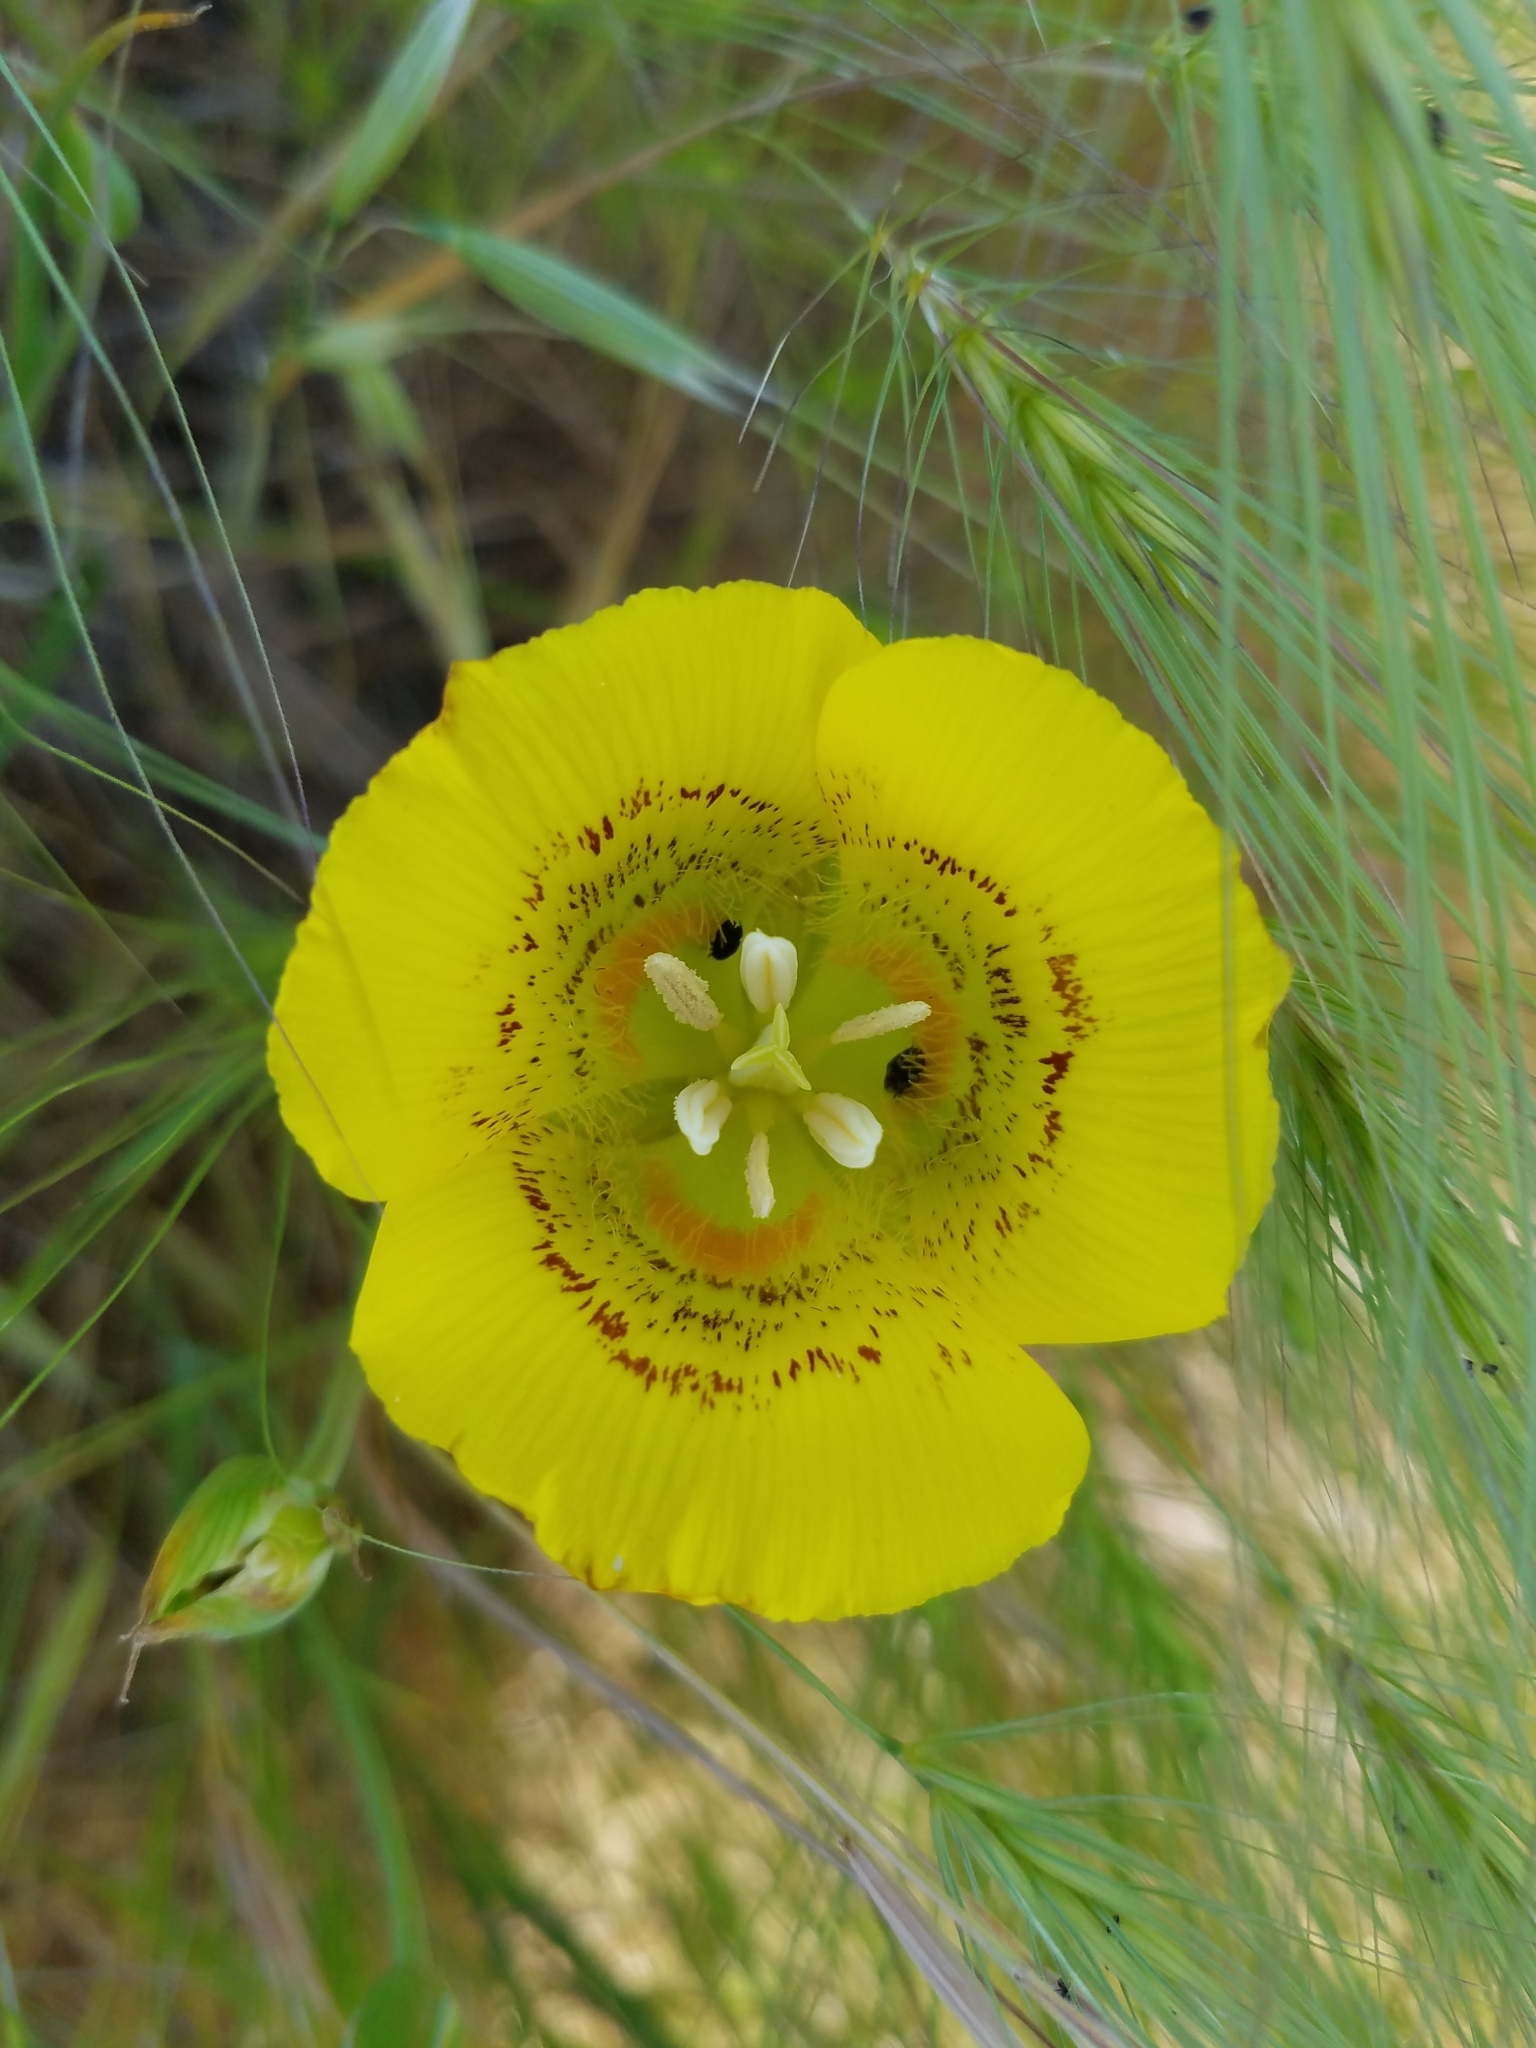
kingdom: Plantae
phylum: Tracheophyta
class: Liliopsida
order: Liliales
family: Liliaceae
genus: Calochortus
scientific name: Calochortus luteus
